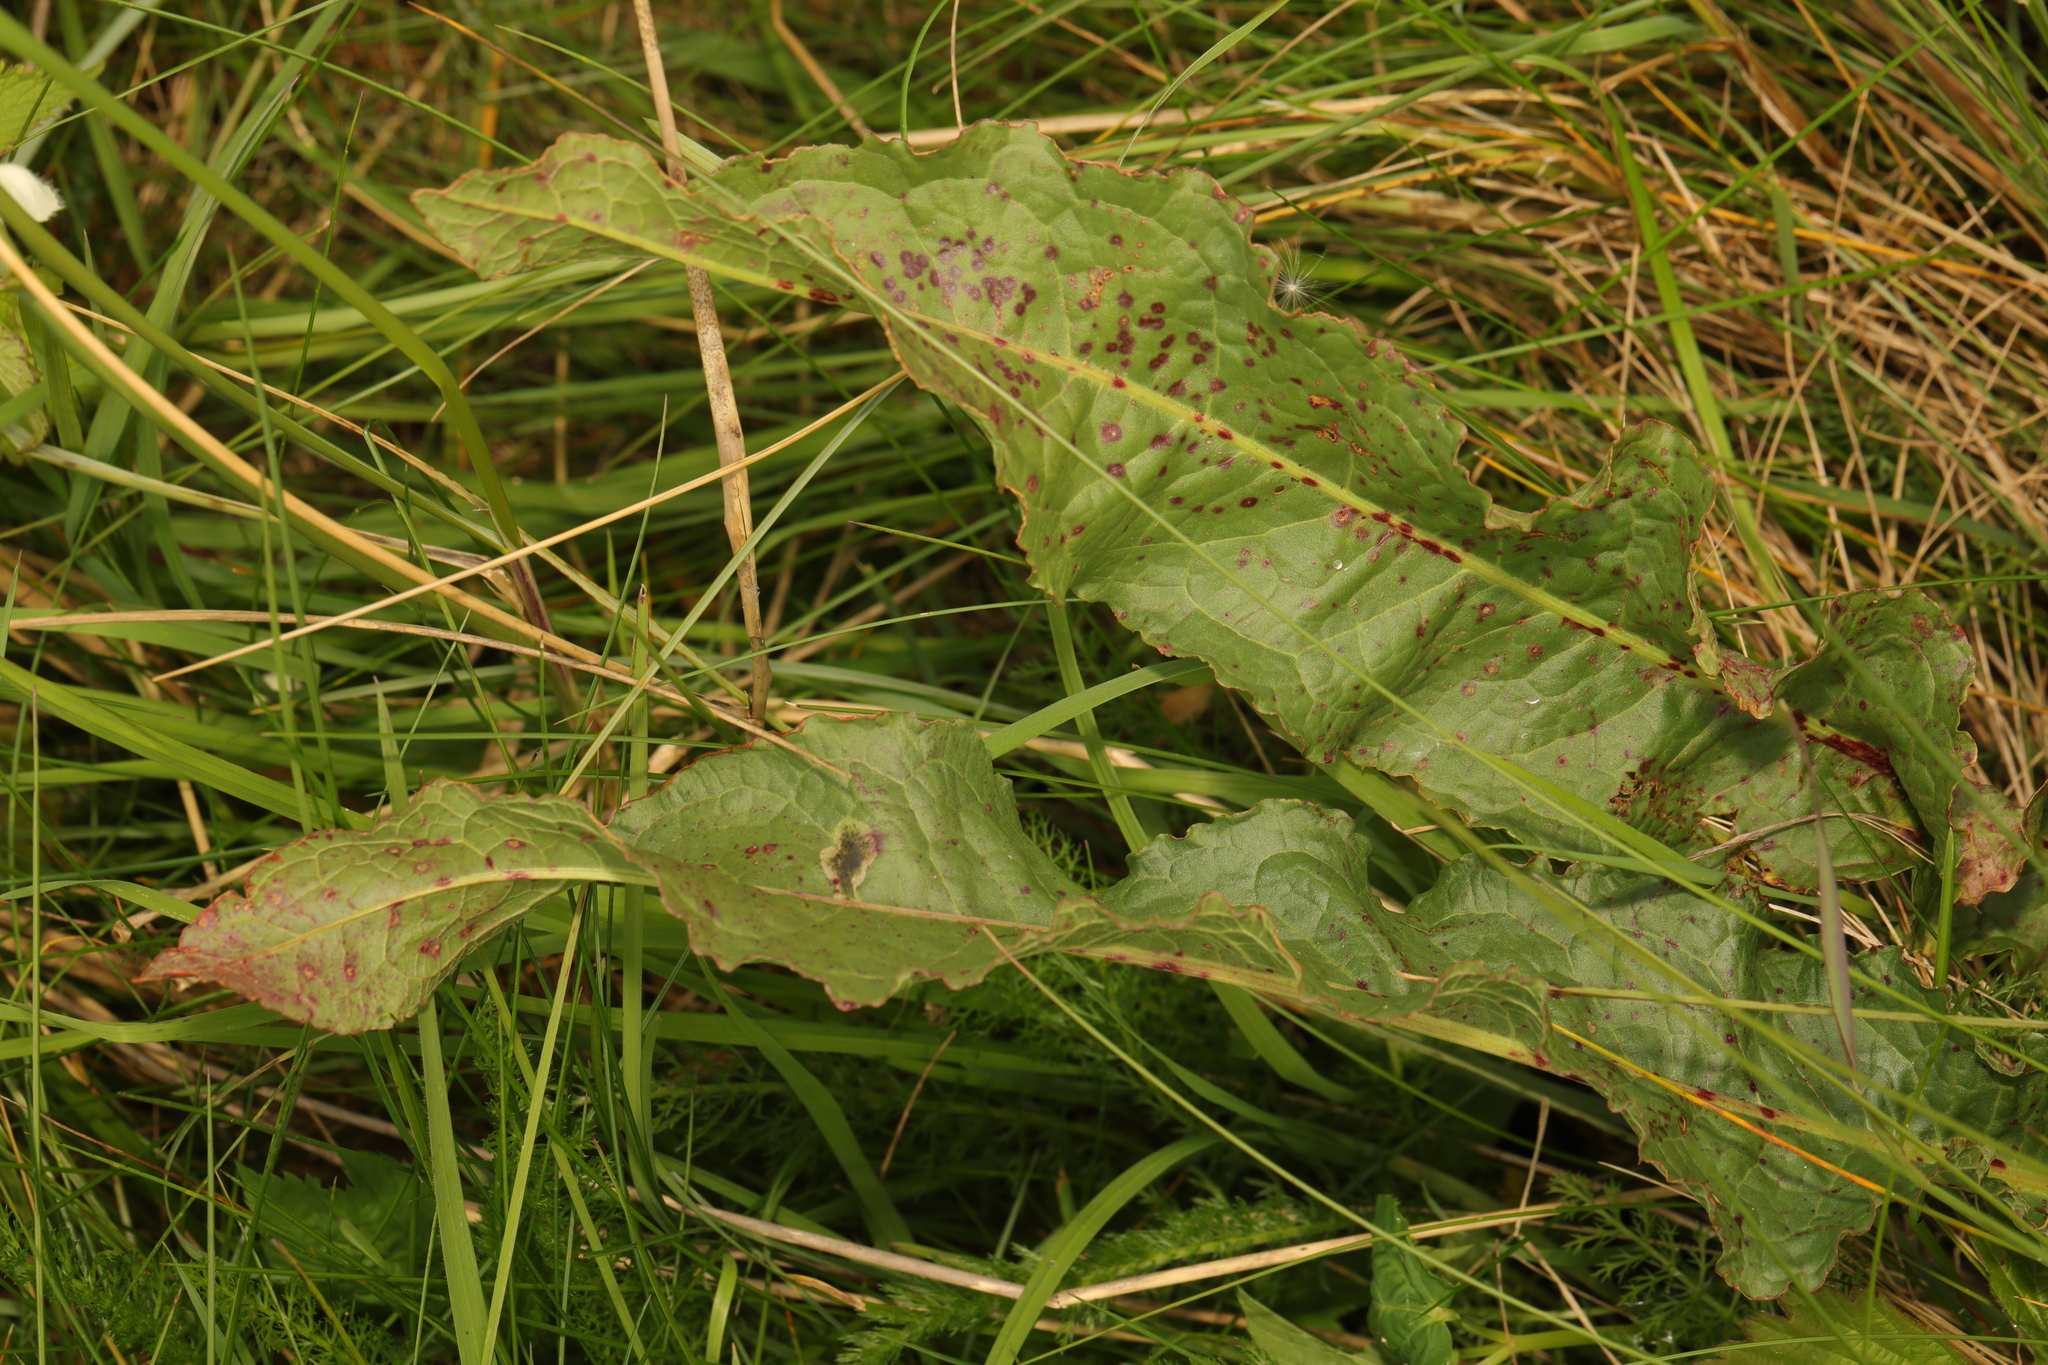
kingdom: Plantae
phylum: Tracheophyta
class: Magnoliopsida
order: Caryophyllales
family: Polygonaceae
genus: Rumex
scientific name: Rumex crispus
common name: Curled dock
